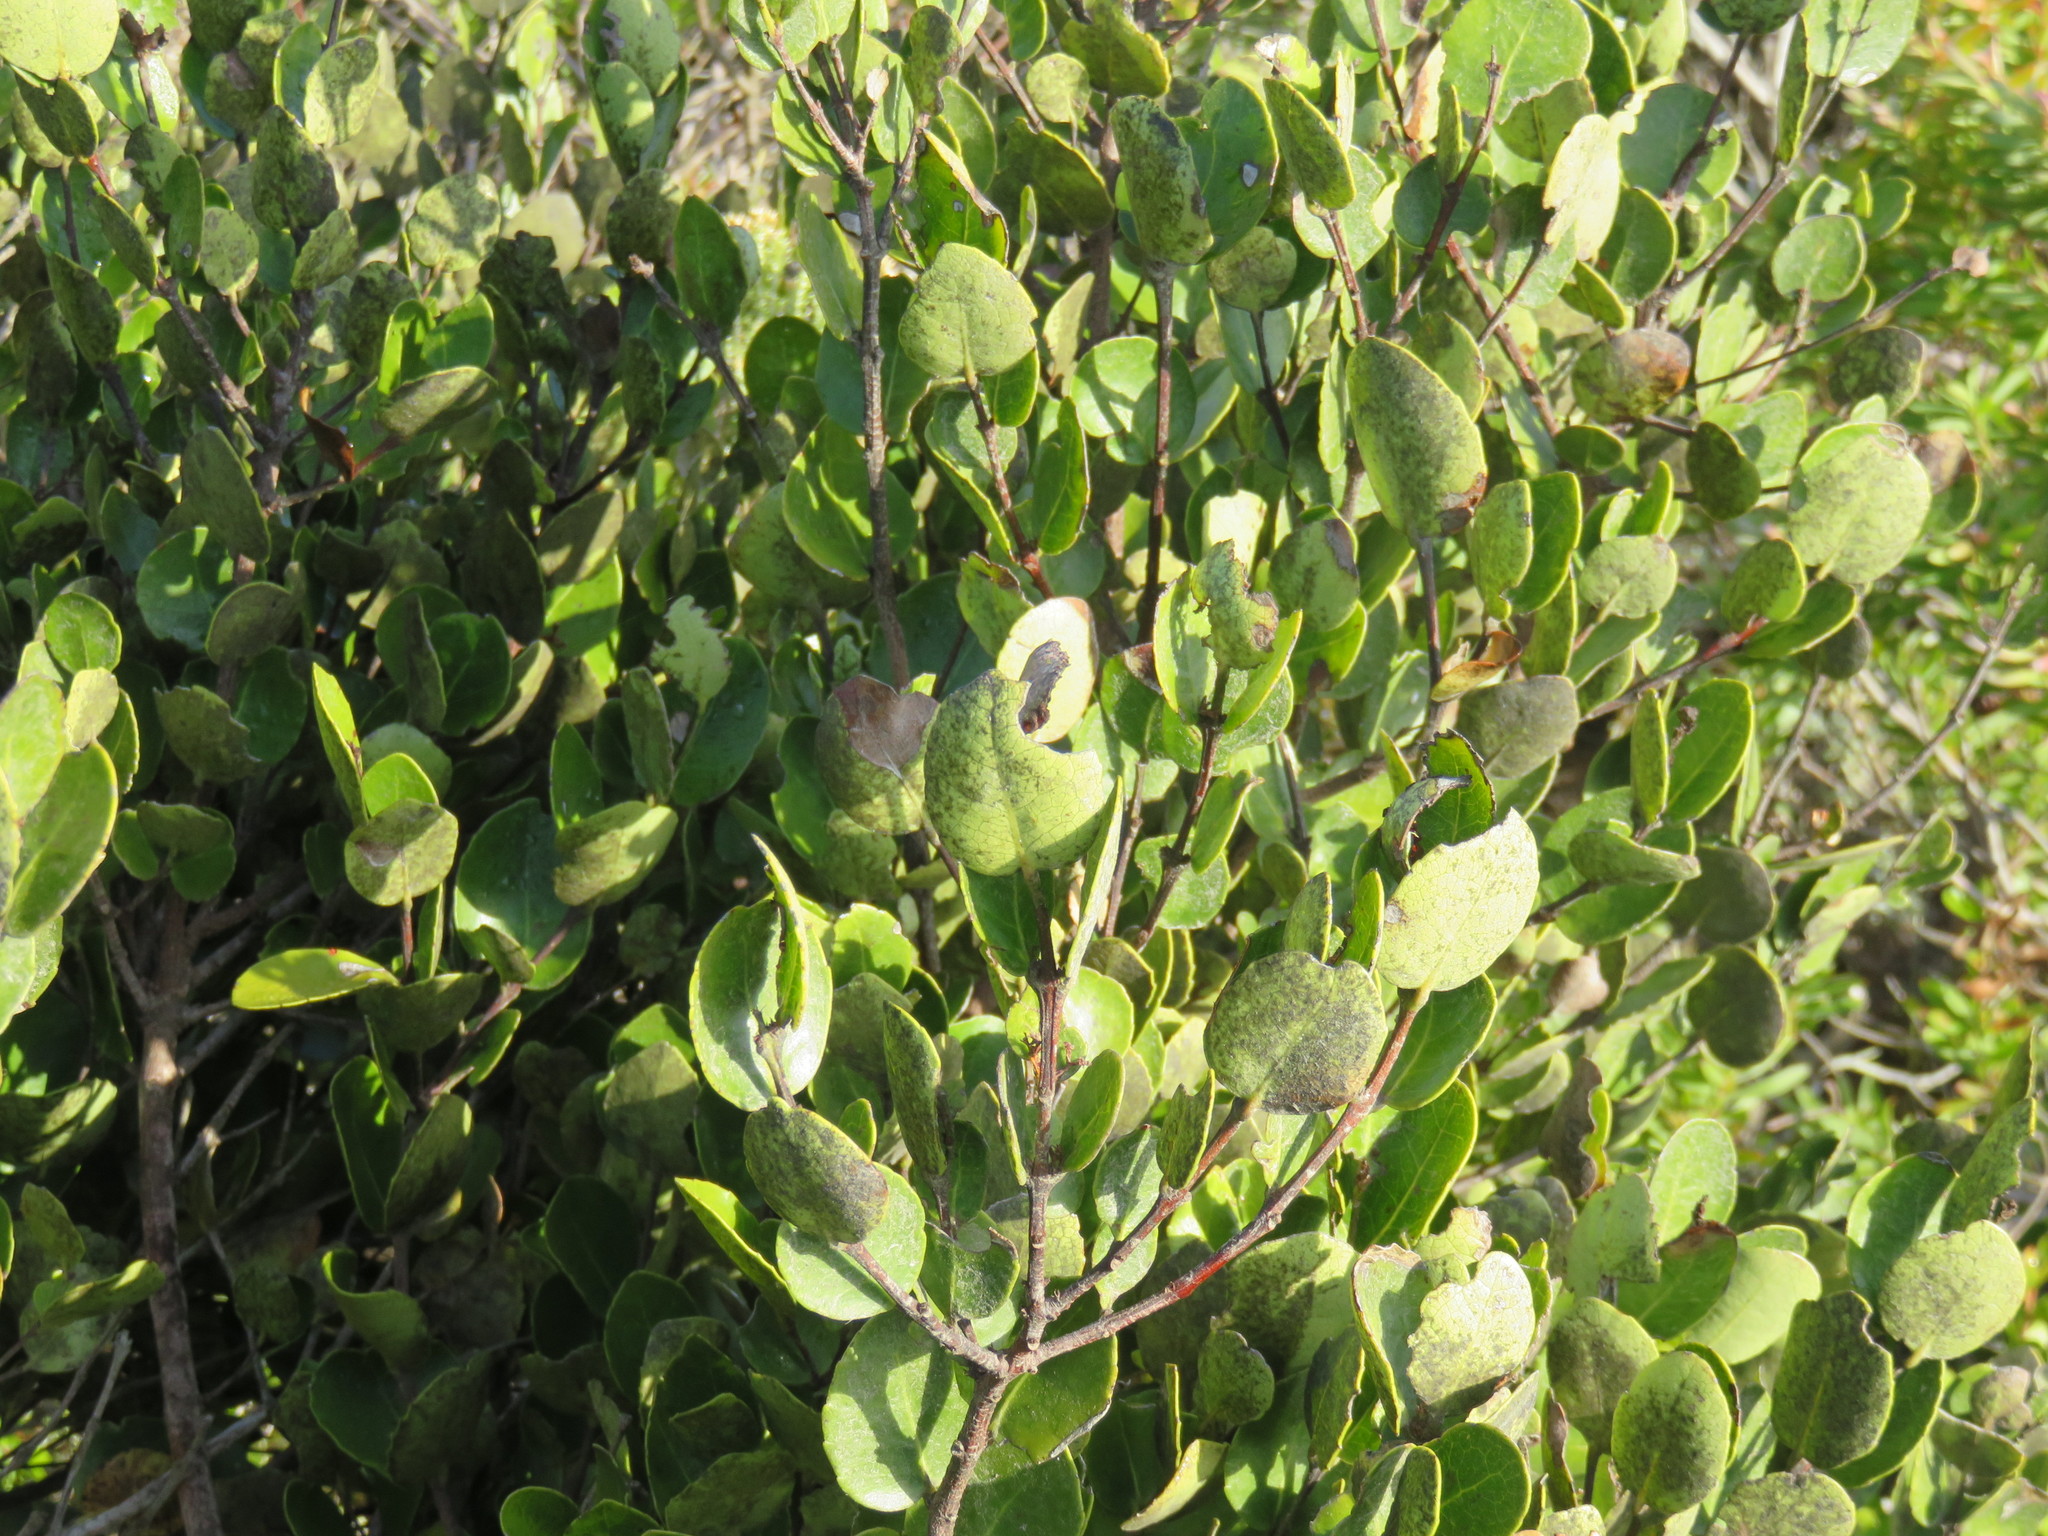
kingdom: Plantae
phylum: Tracheophyta
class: Magnoliopsida
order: Celastrales
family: Celastraceae
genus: Cassine
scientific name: Cassine peragua
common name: Cape saffron
